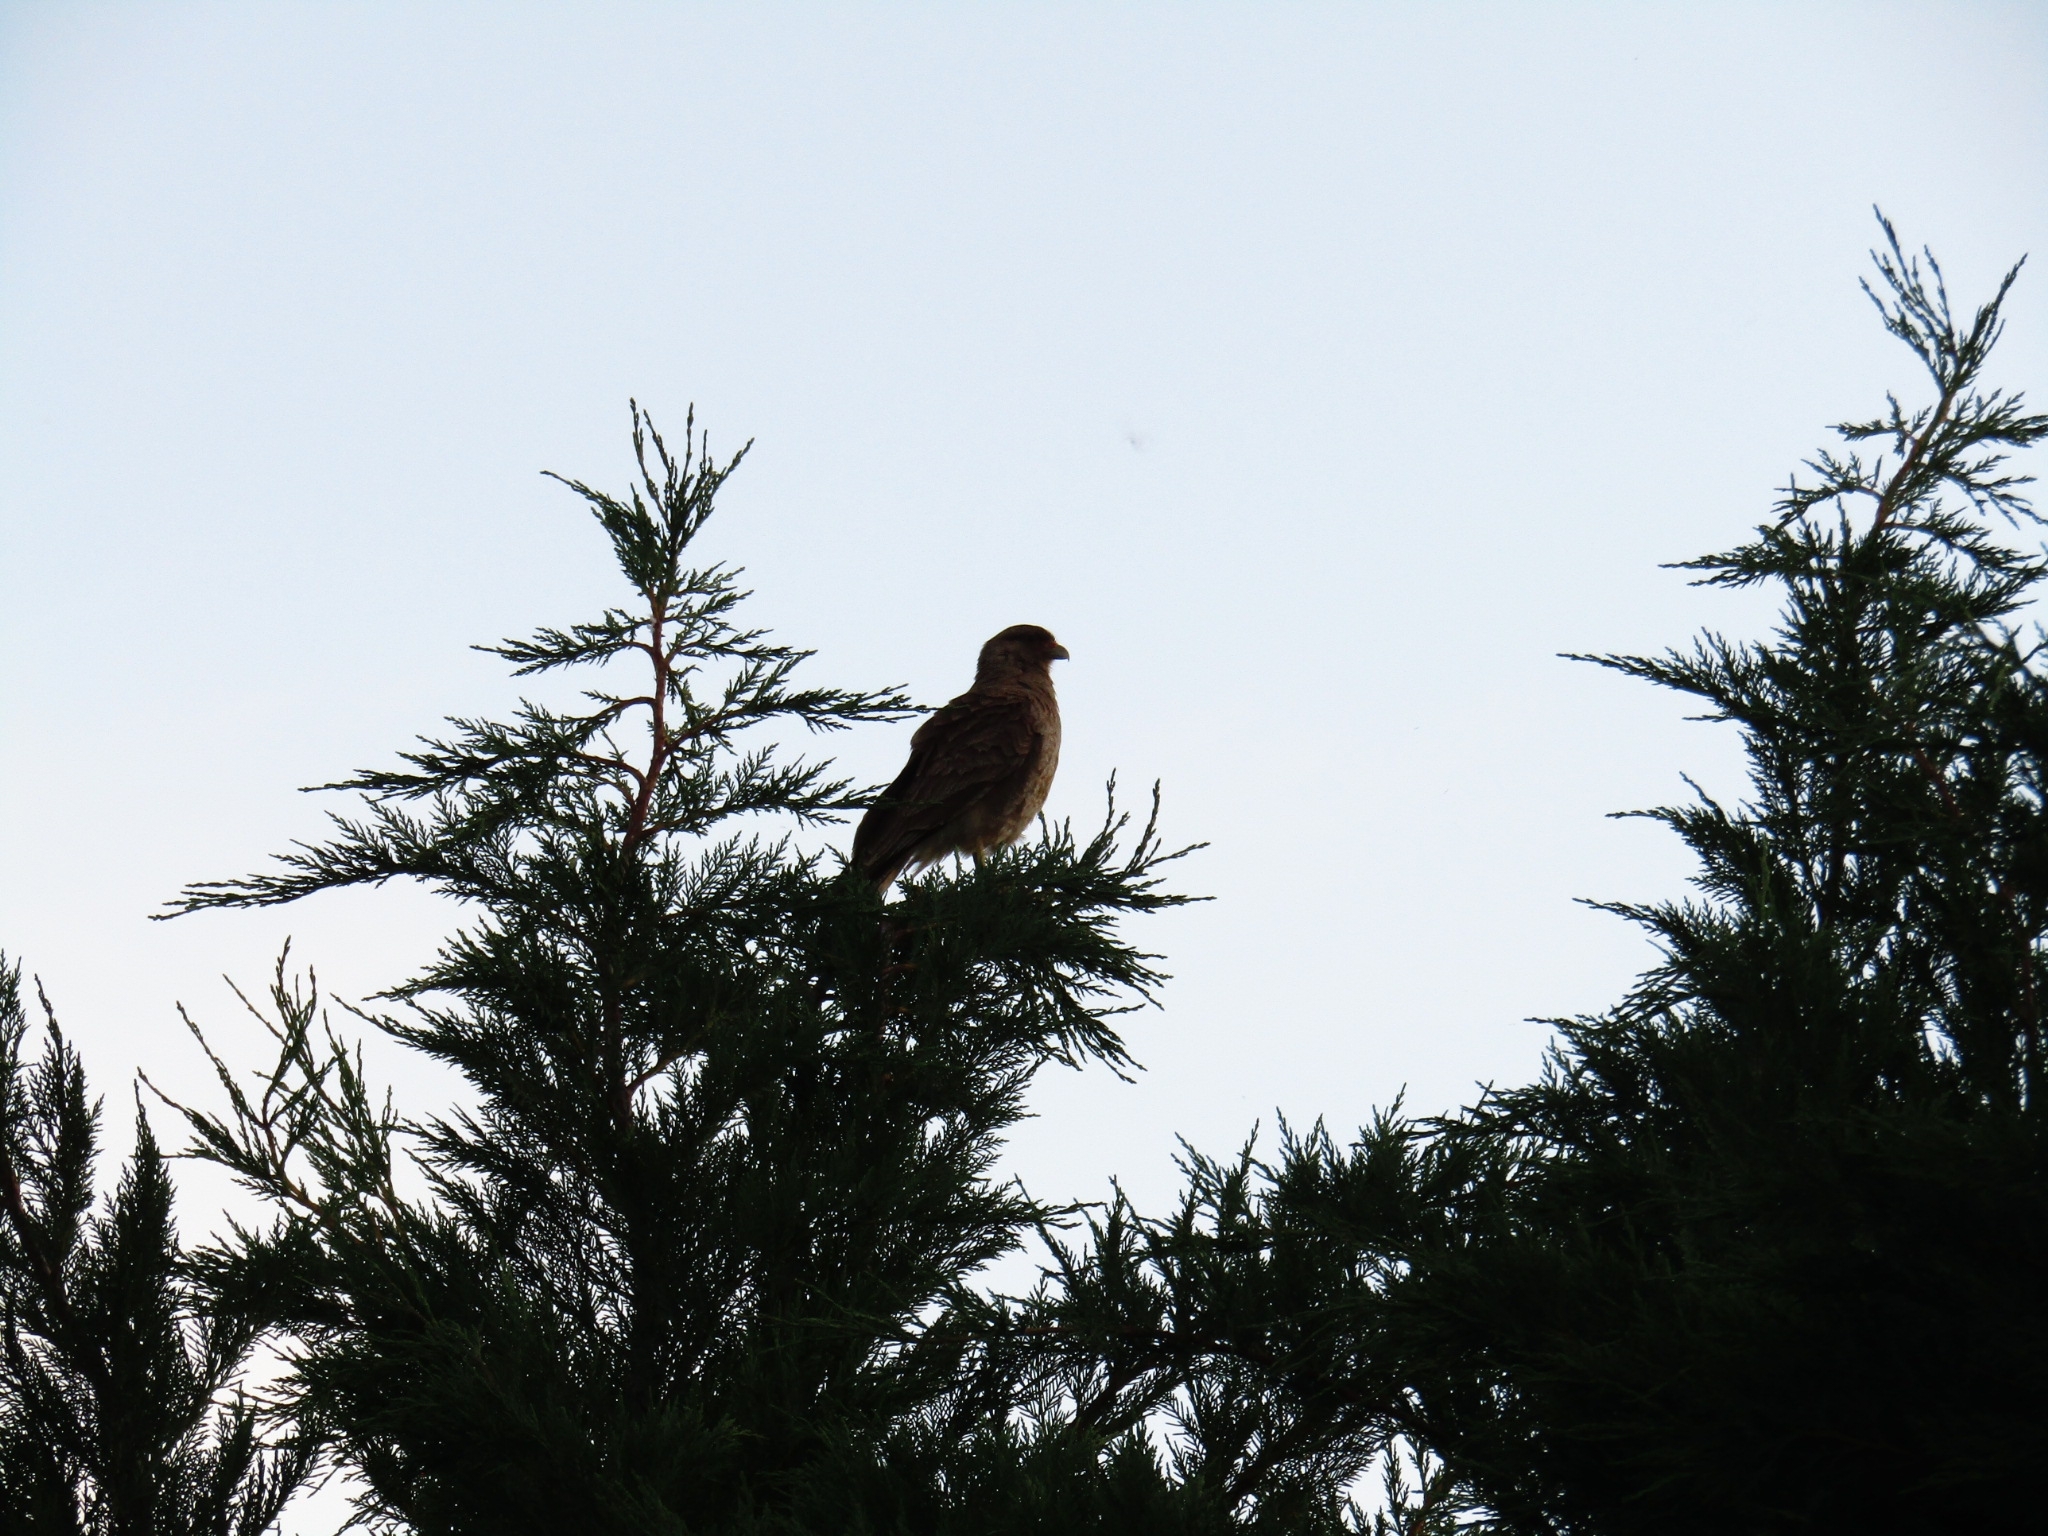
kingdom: Animalia
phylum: Chordata
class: Aves
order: Falconiformes
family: Falconidae
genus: Daptrius
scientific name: Daptrius
